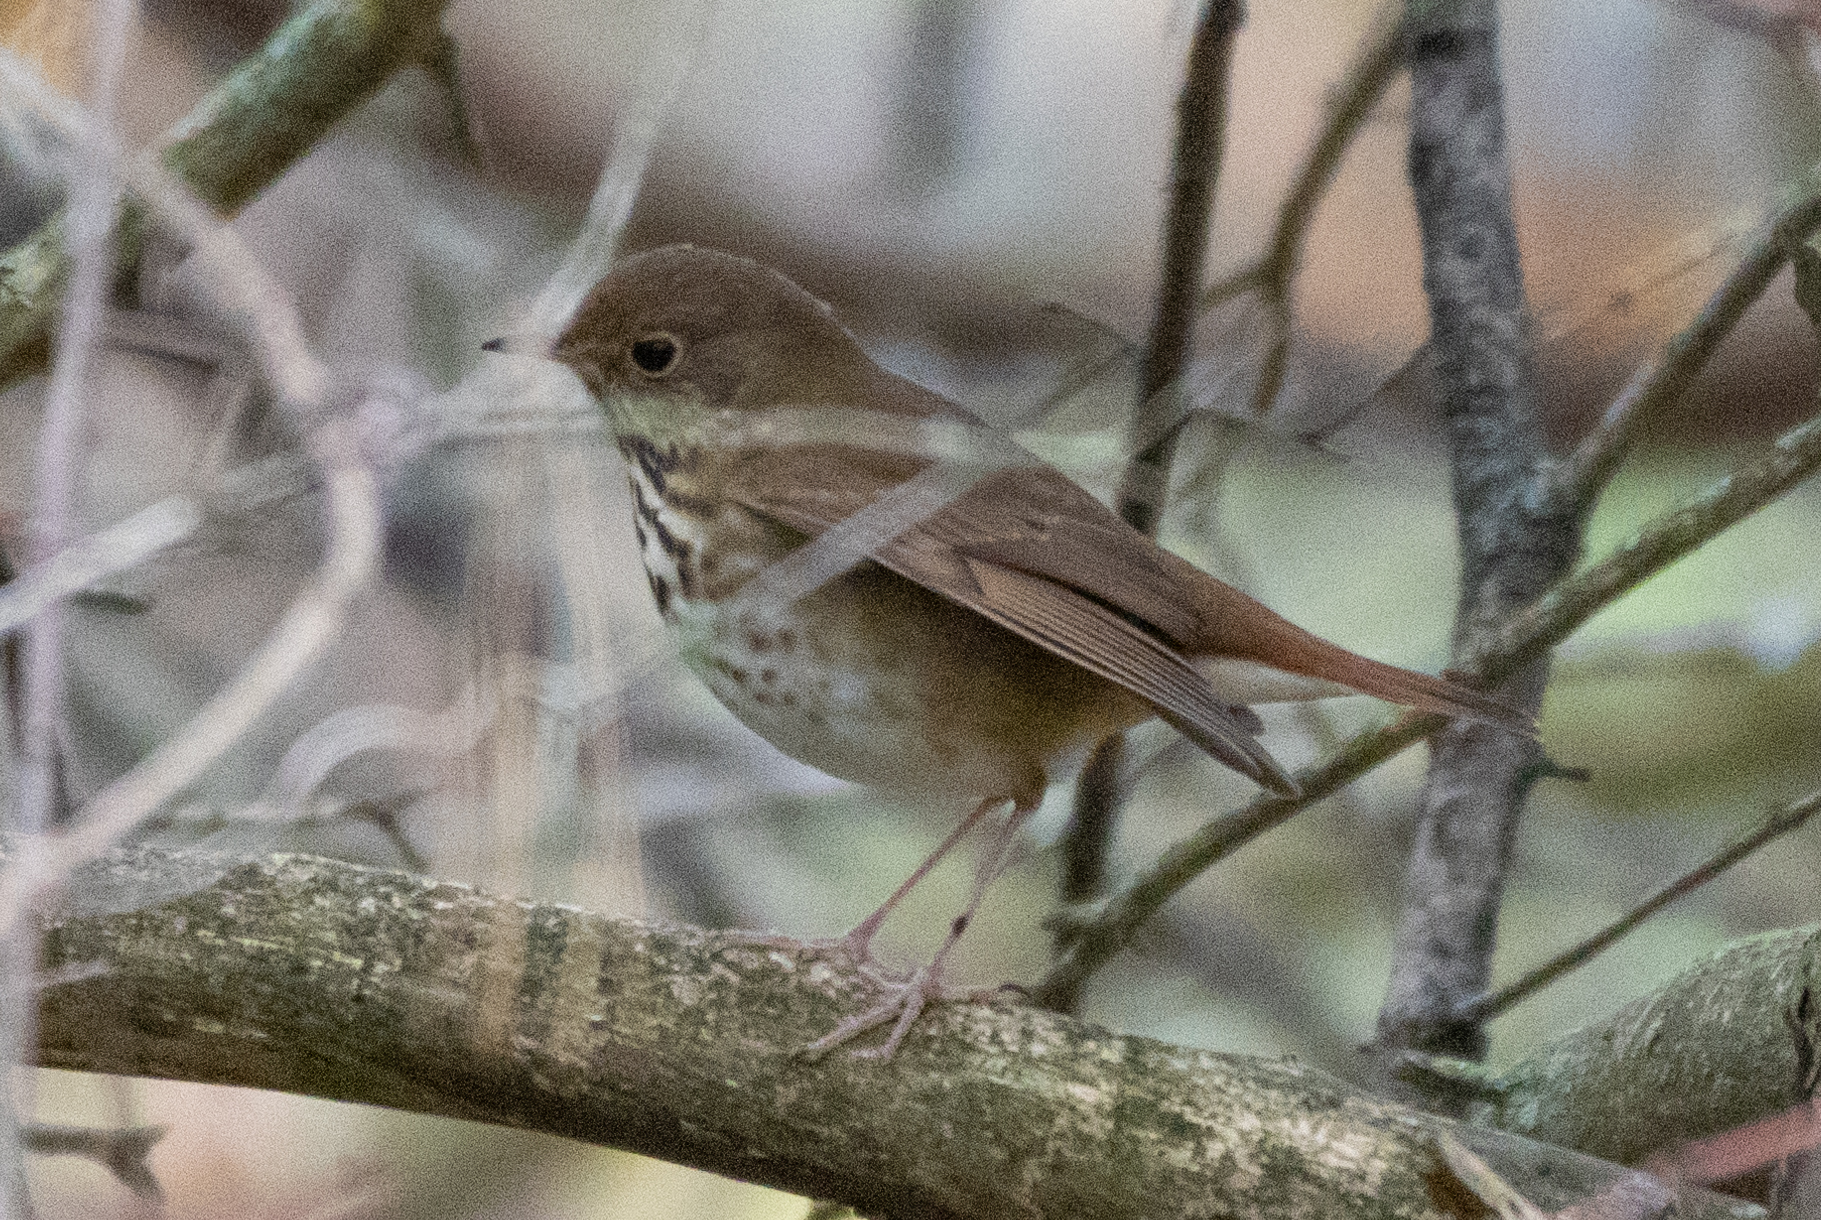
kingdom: Animalia
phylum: Chordata
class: Aves
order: Passeriformes
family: Turdidae
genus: Catharus
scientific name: Catharus guttatus
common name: Hermit thrush
